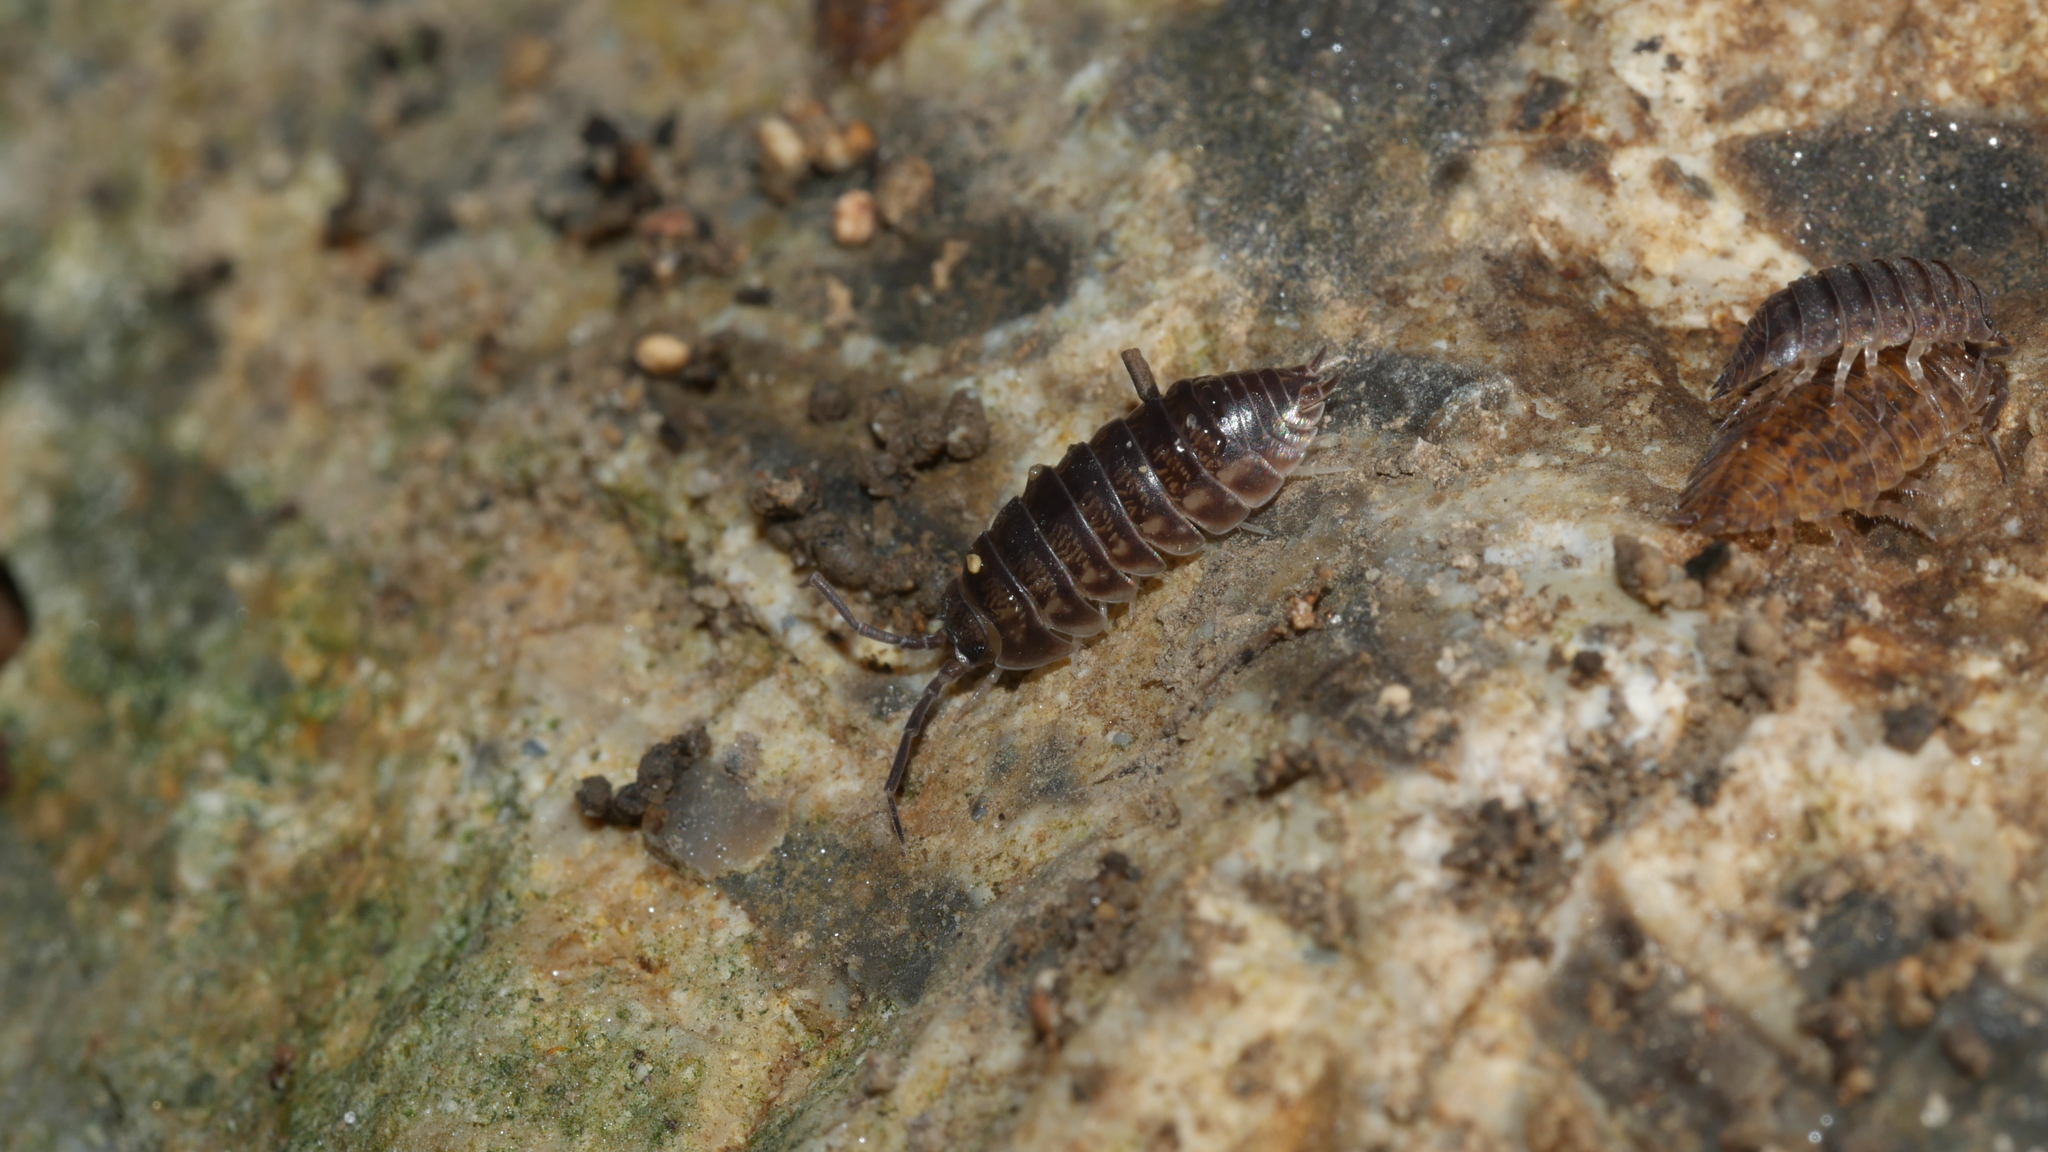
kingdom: Animalia
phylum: Arthropoda
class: Malacostraca
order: Isopoda
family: Cylisticidae
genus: Cylisticus
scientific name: Cylisticus convexus
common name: Curly woodlouse
